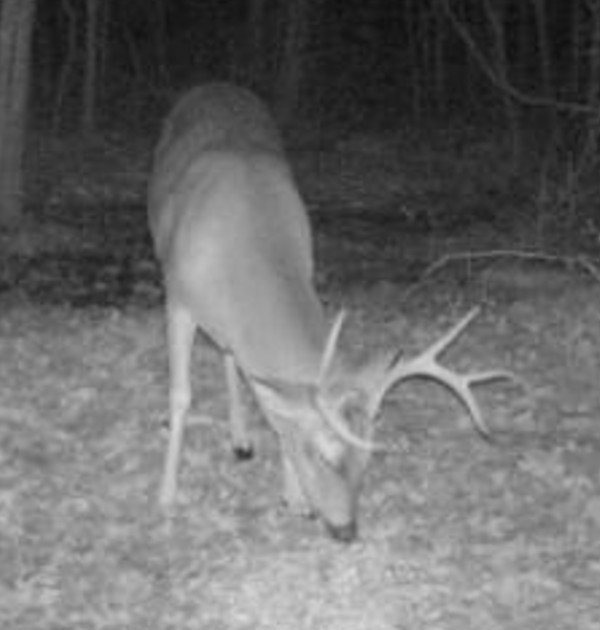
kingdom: Animalia
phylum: Chordata
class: Mammalia
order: Artiodactyla
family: Cervidae
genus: Odocoileus
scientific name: Odocoileus virginianus
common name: White-tailed deer
